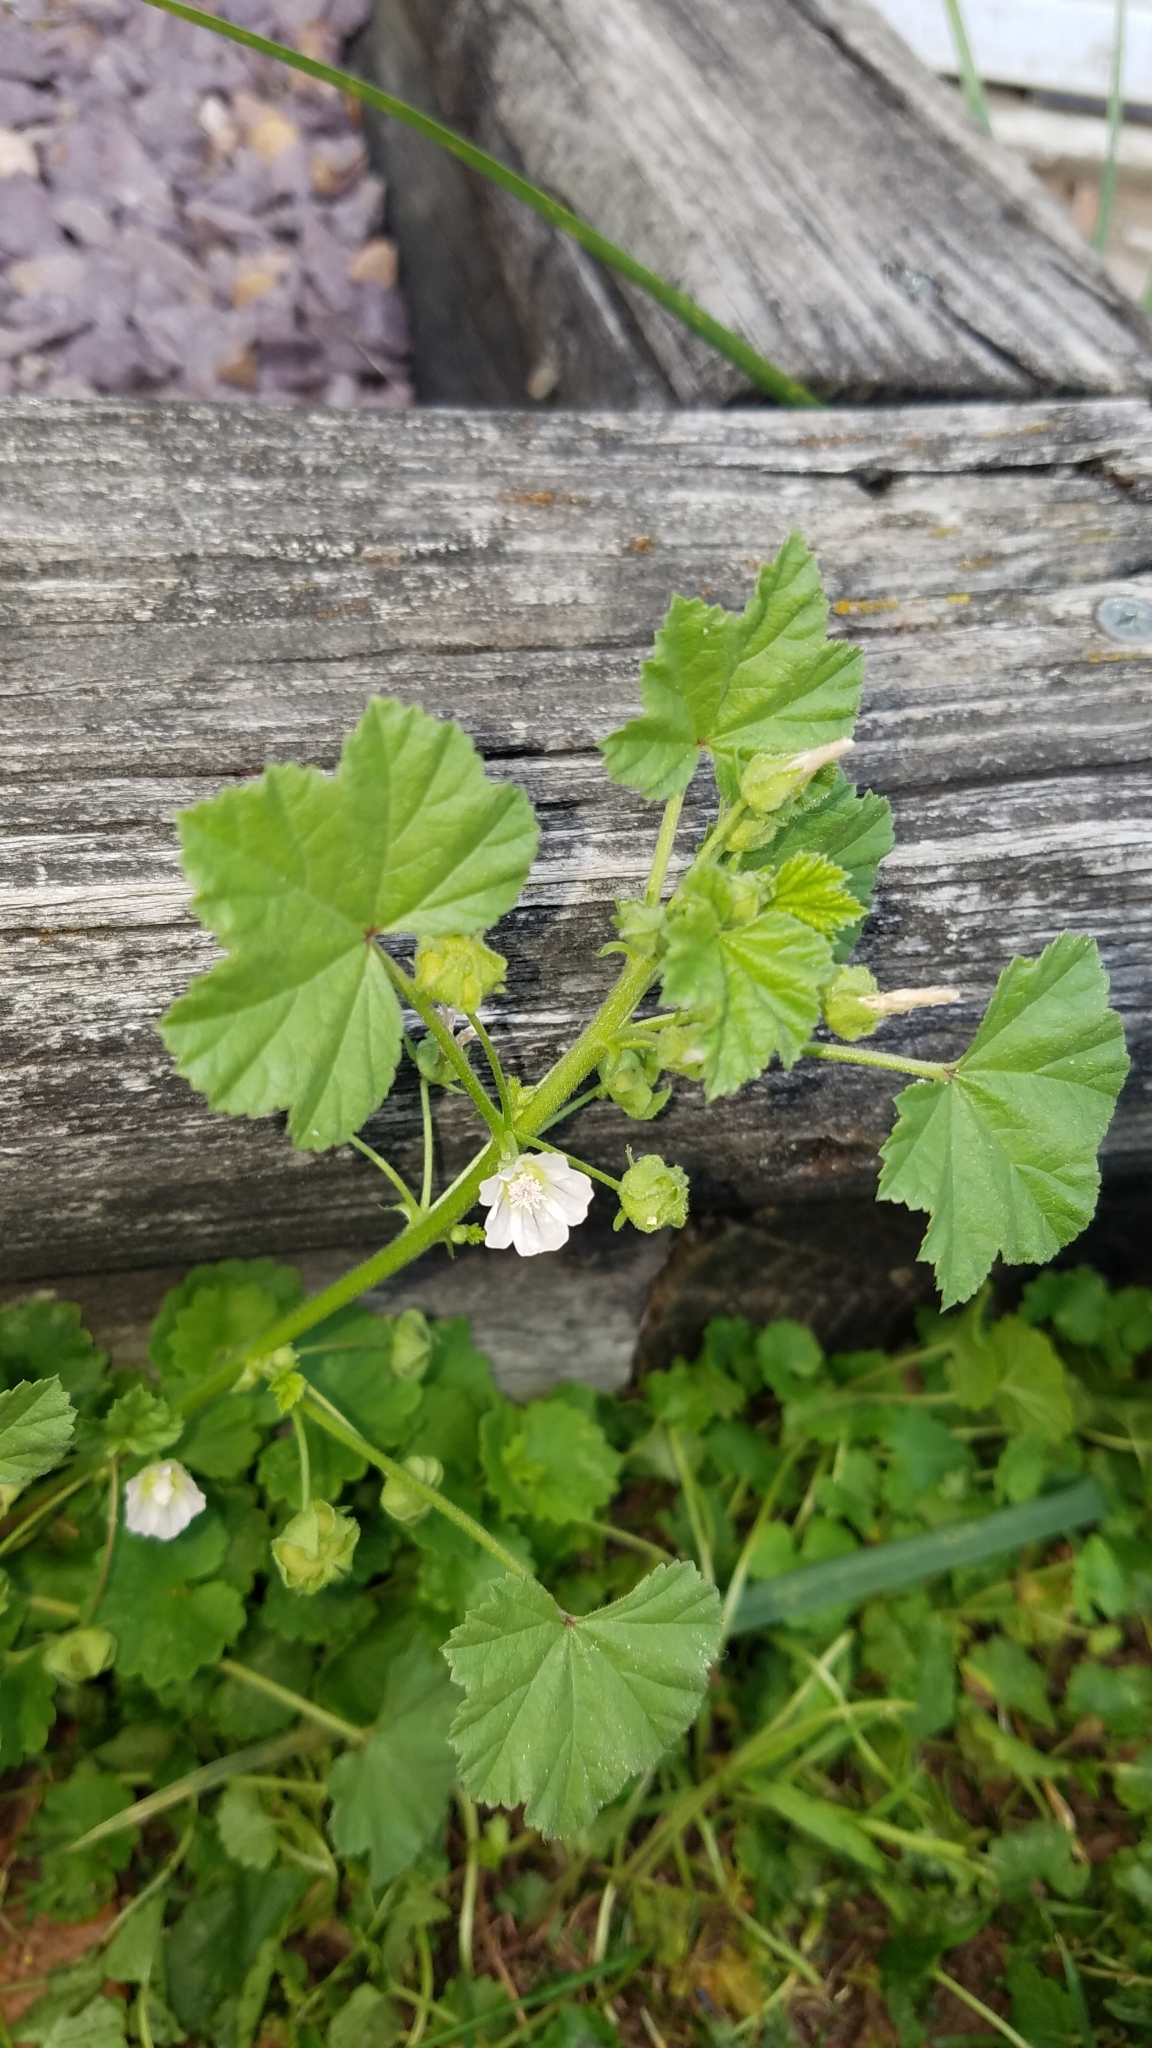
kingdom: Plantae
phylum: Tracheophyta
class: Magnoliopsida
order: Malvales
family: Malvaceae
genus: Malva
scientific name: Malva neglecta
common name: Common mallow
